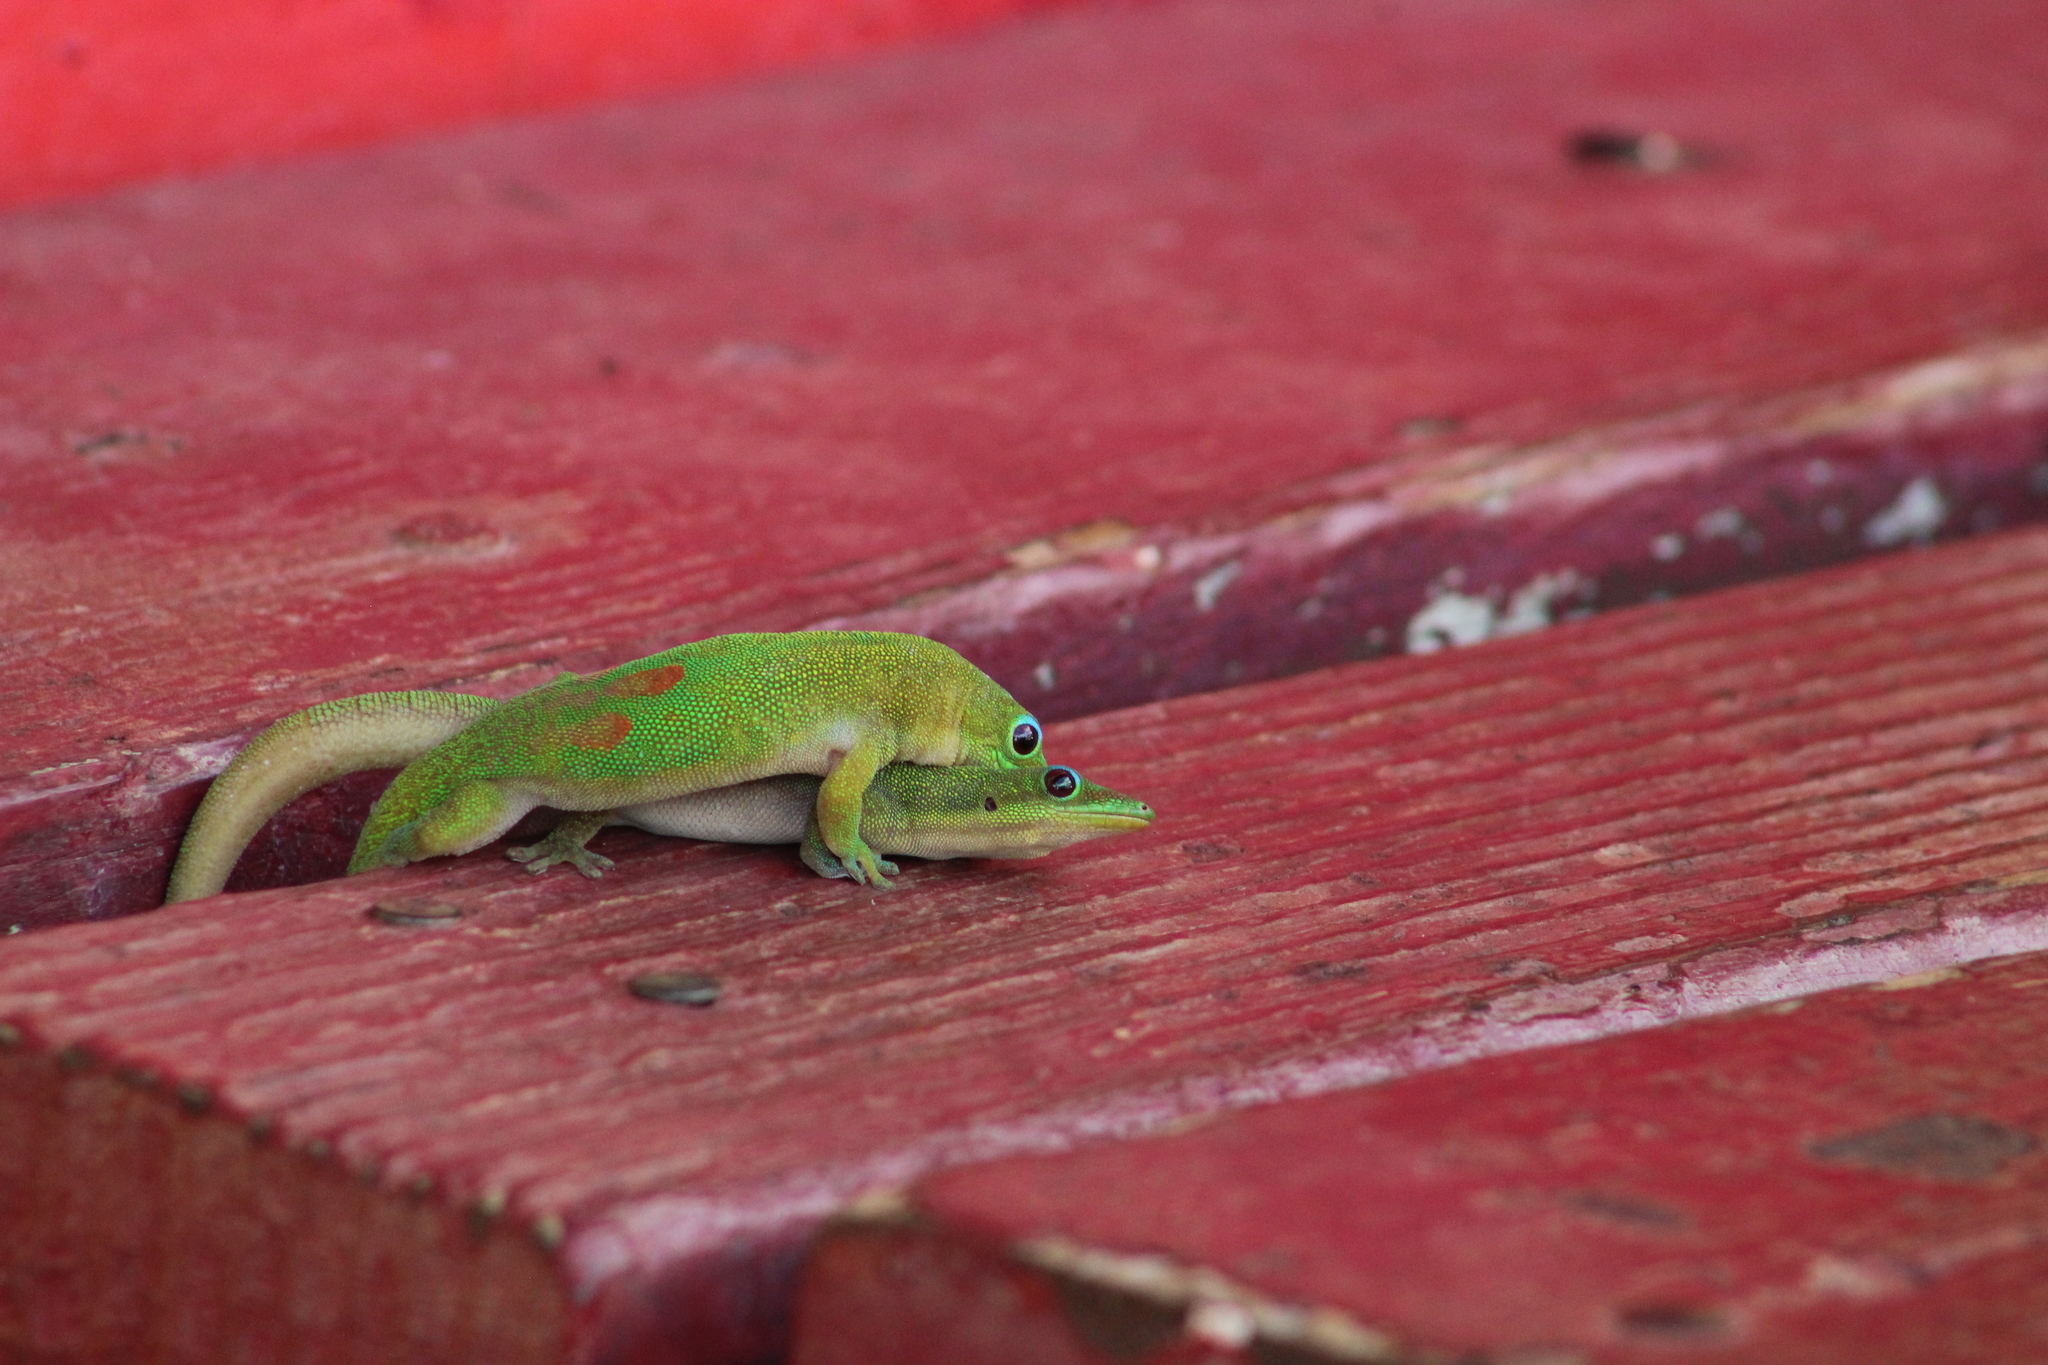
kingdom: Animalia
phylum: Chordata
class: Squamata
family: Gekkonidae
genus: Phelsuma
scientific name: Phelsuma laticauda
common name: Gold dust day gecko
